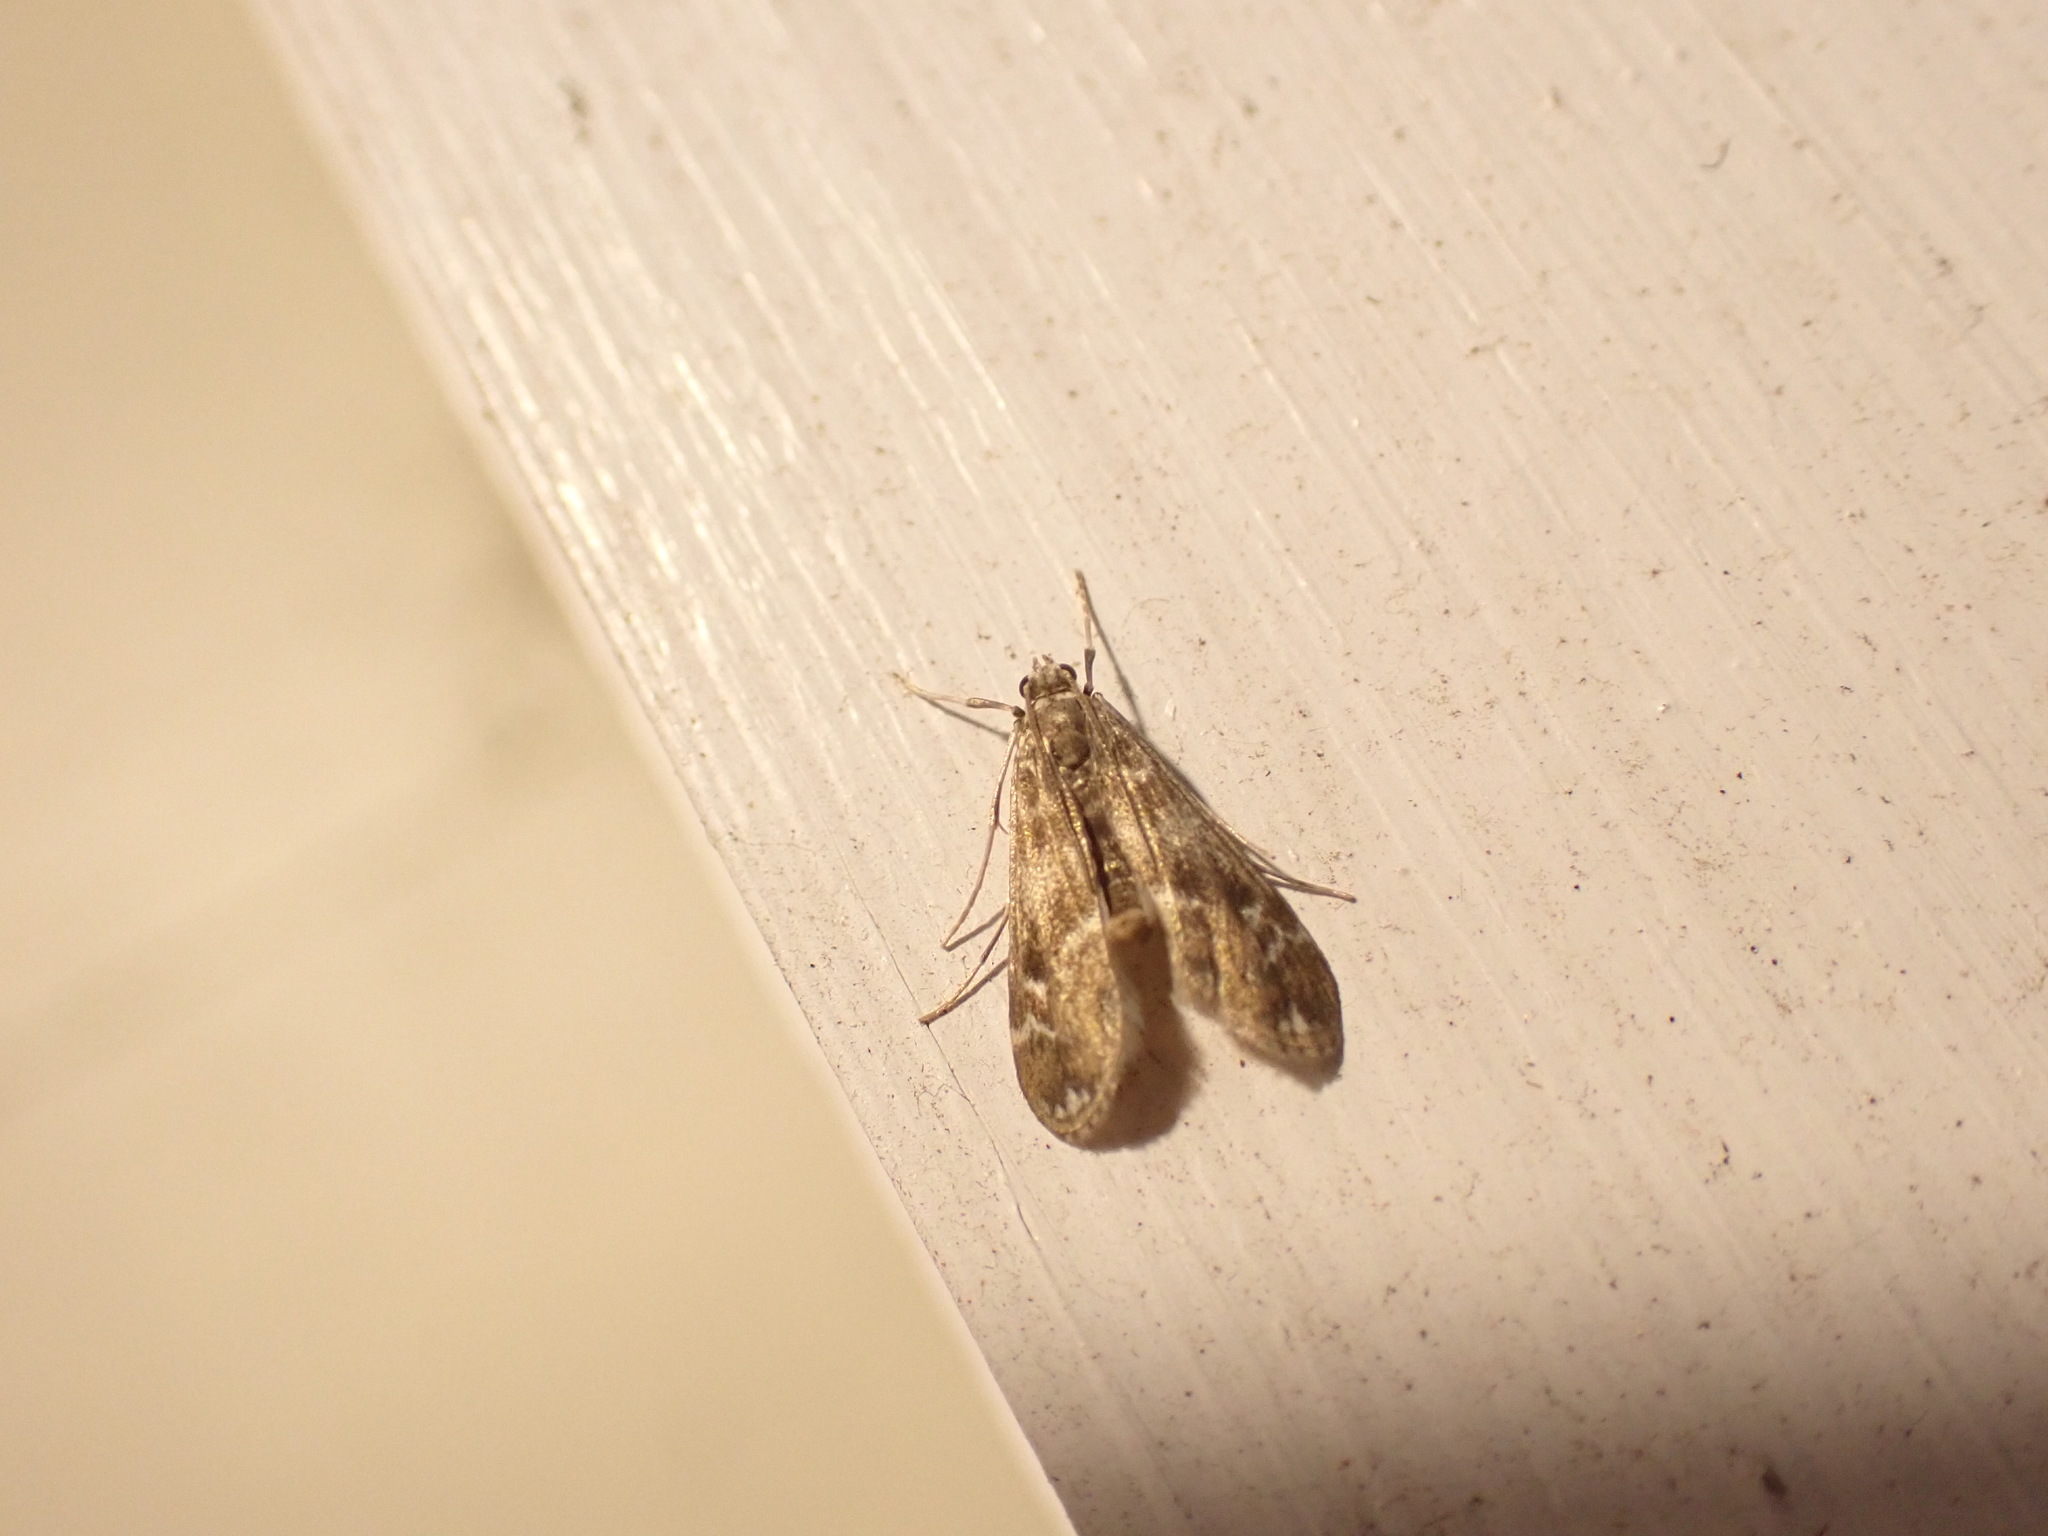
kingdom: Animalia
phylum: Arthropoda
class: Insecta
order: Lepidoptera
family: Crambidae
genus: Hygraula
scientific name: Hygraula nitens
